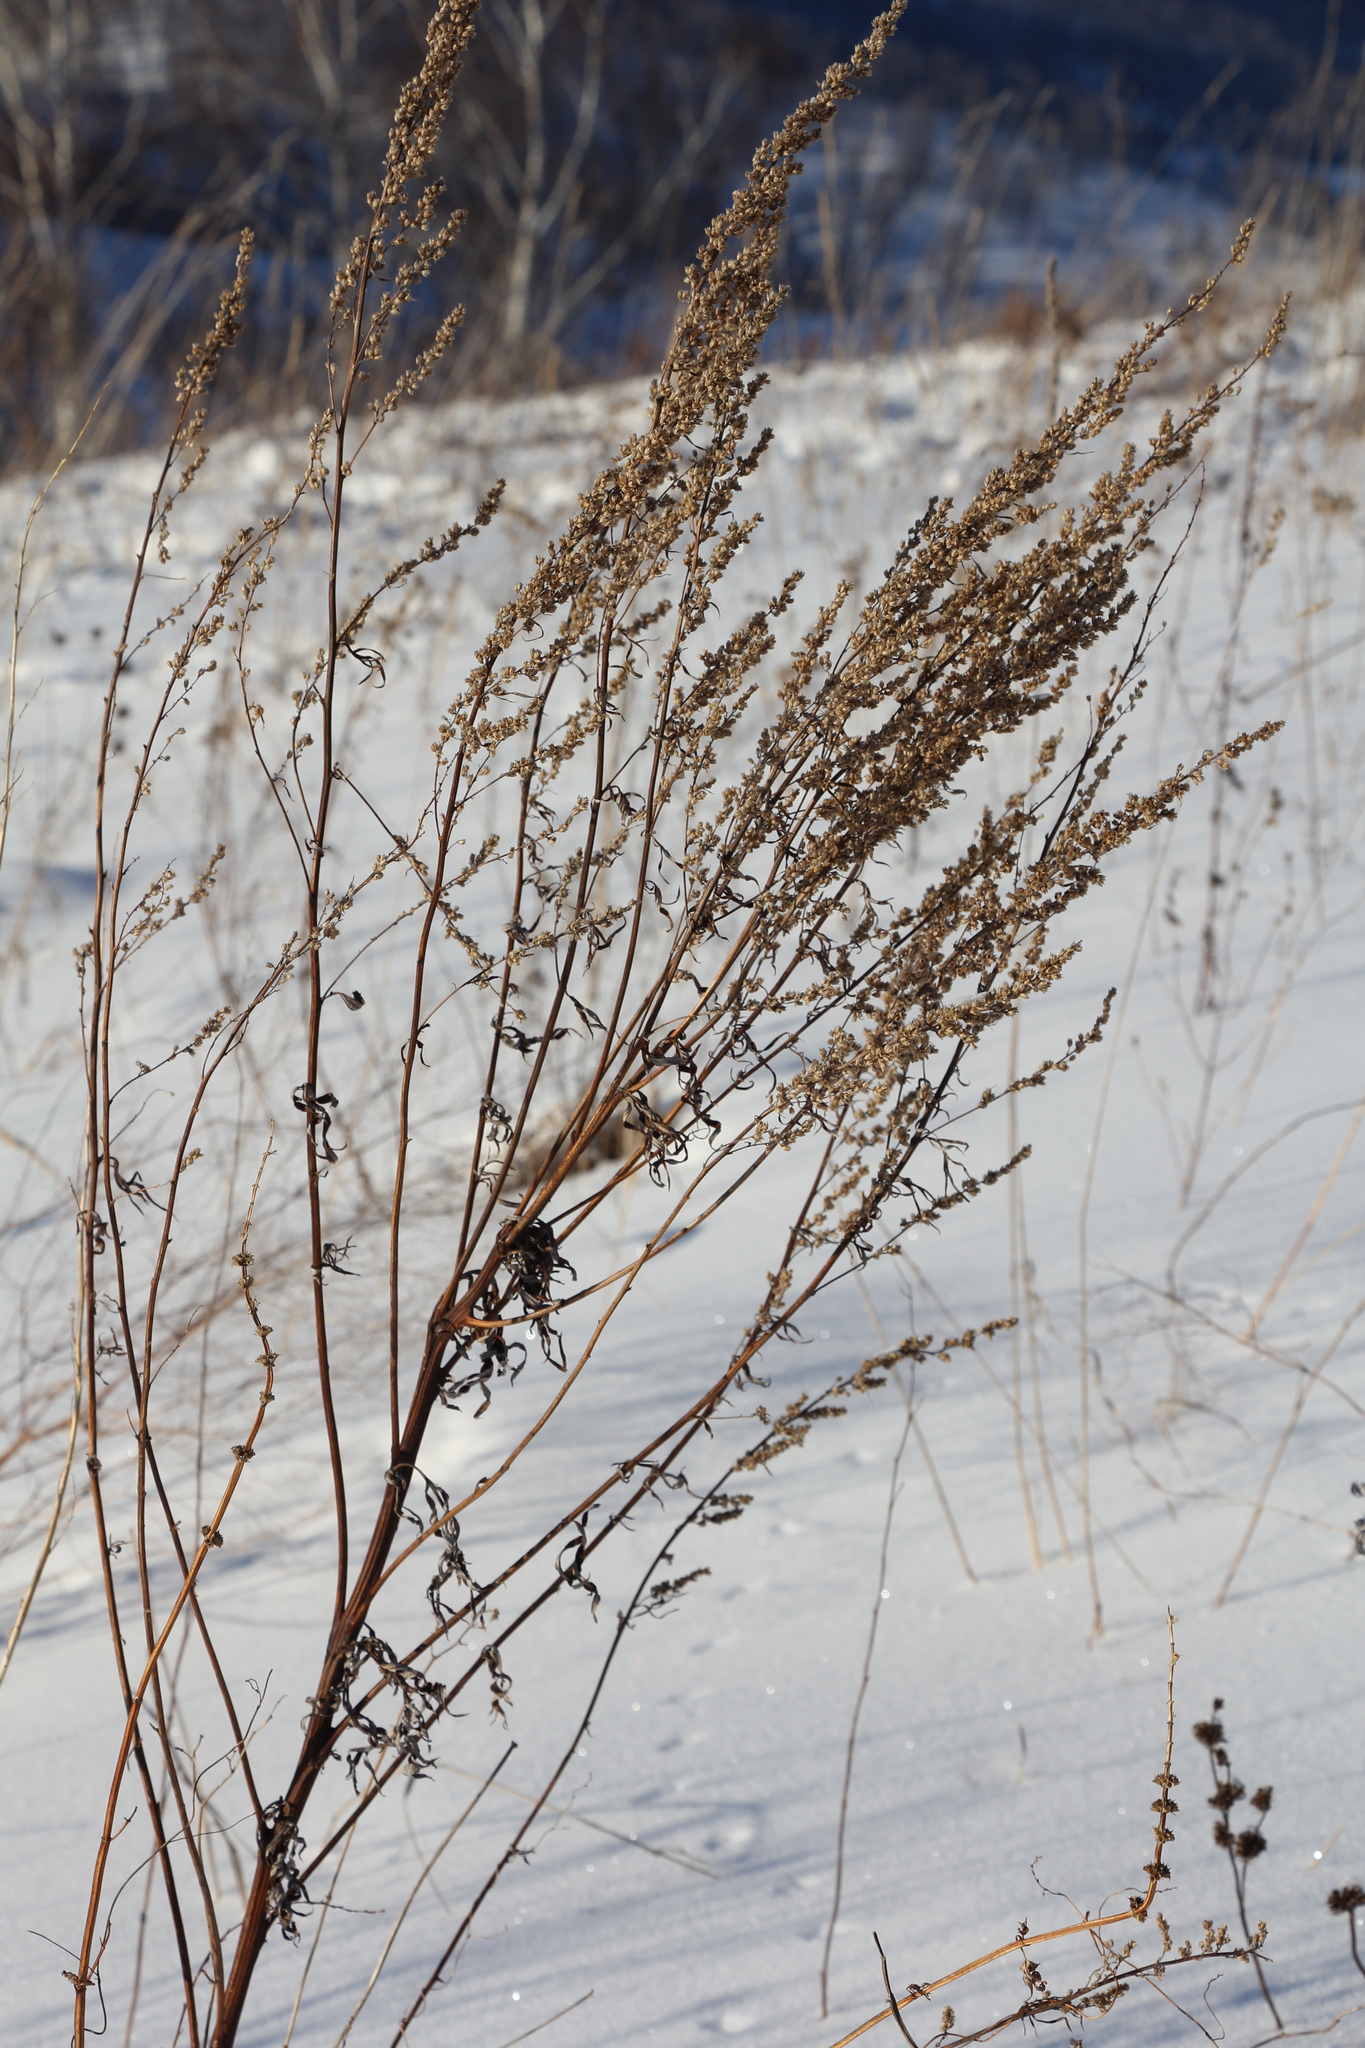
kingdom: Plantae
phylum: Tracheophyta
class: Magnoliopsida
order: Asterales
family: Asteraceae
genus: Artemisia
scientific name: Artemisia vulgaris
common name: Mugwort
